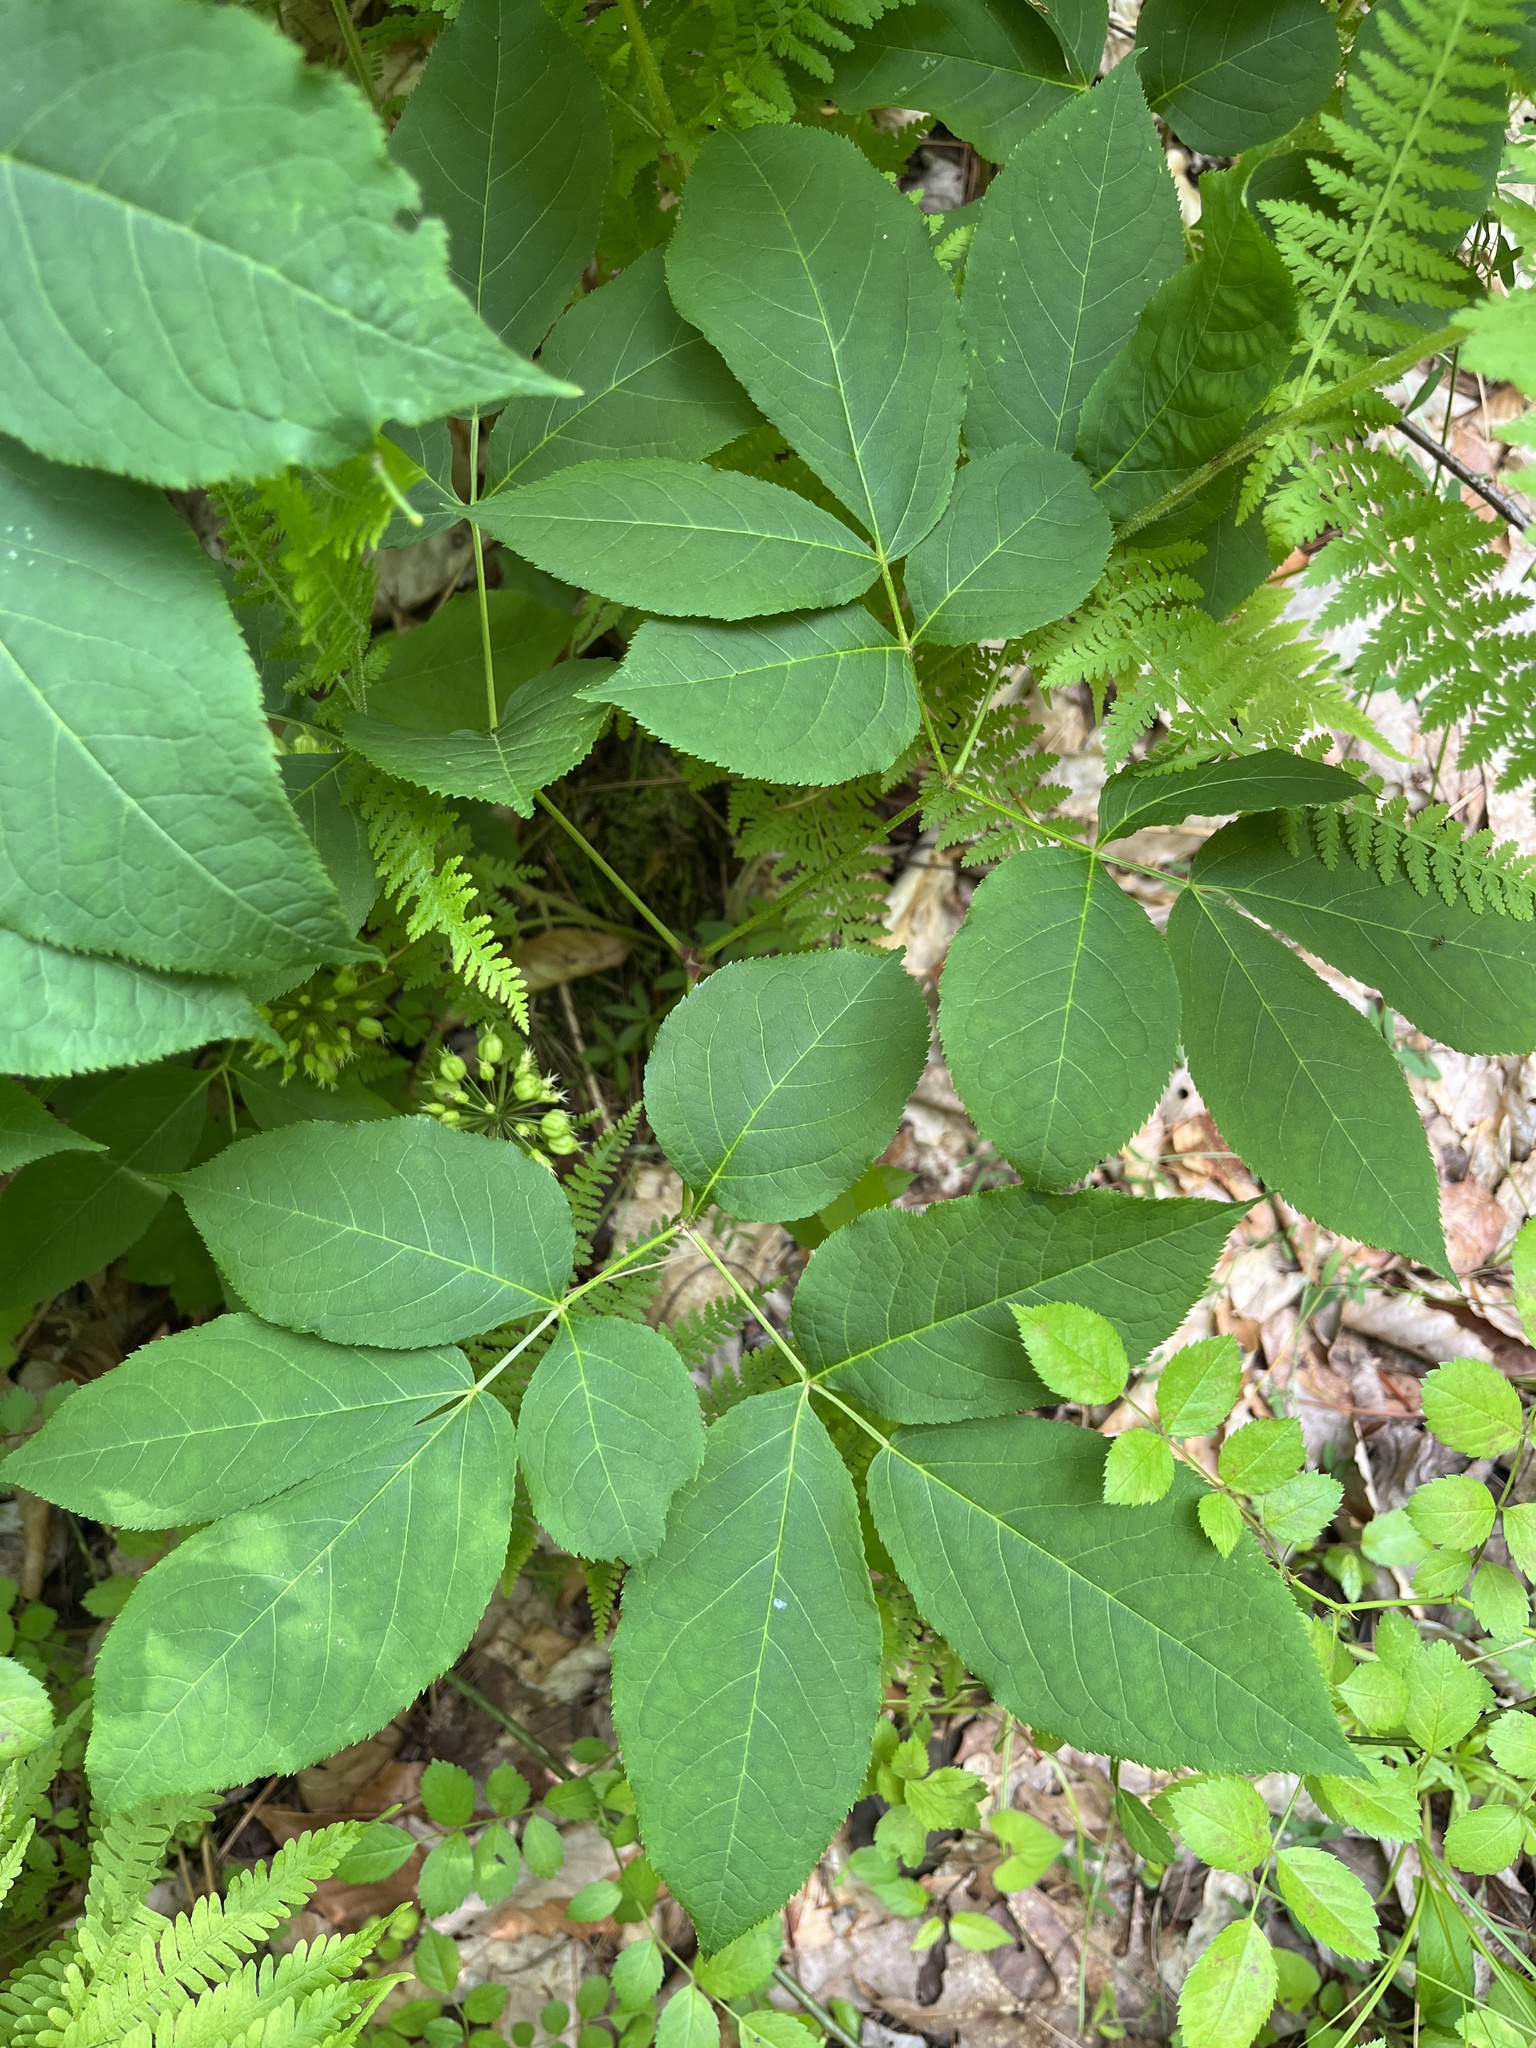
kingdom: Plantae
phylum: Tracheophyta
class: Magnoliopsida
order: Apiales
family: Araliaceae
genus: Aralia
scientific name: Aralia nudicaulis
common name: Wild sarsaparilla
